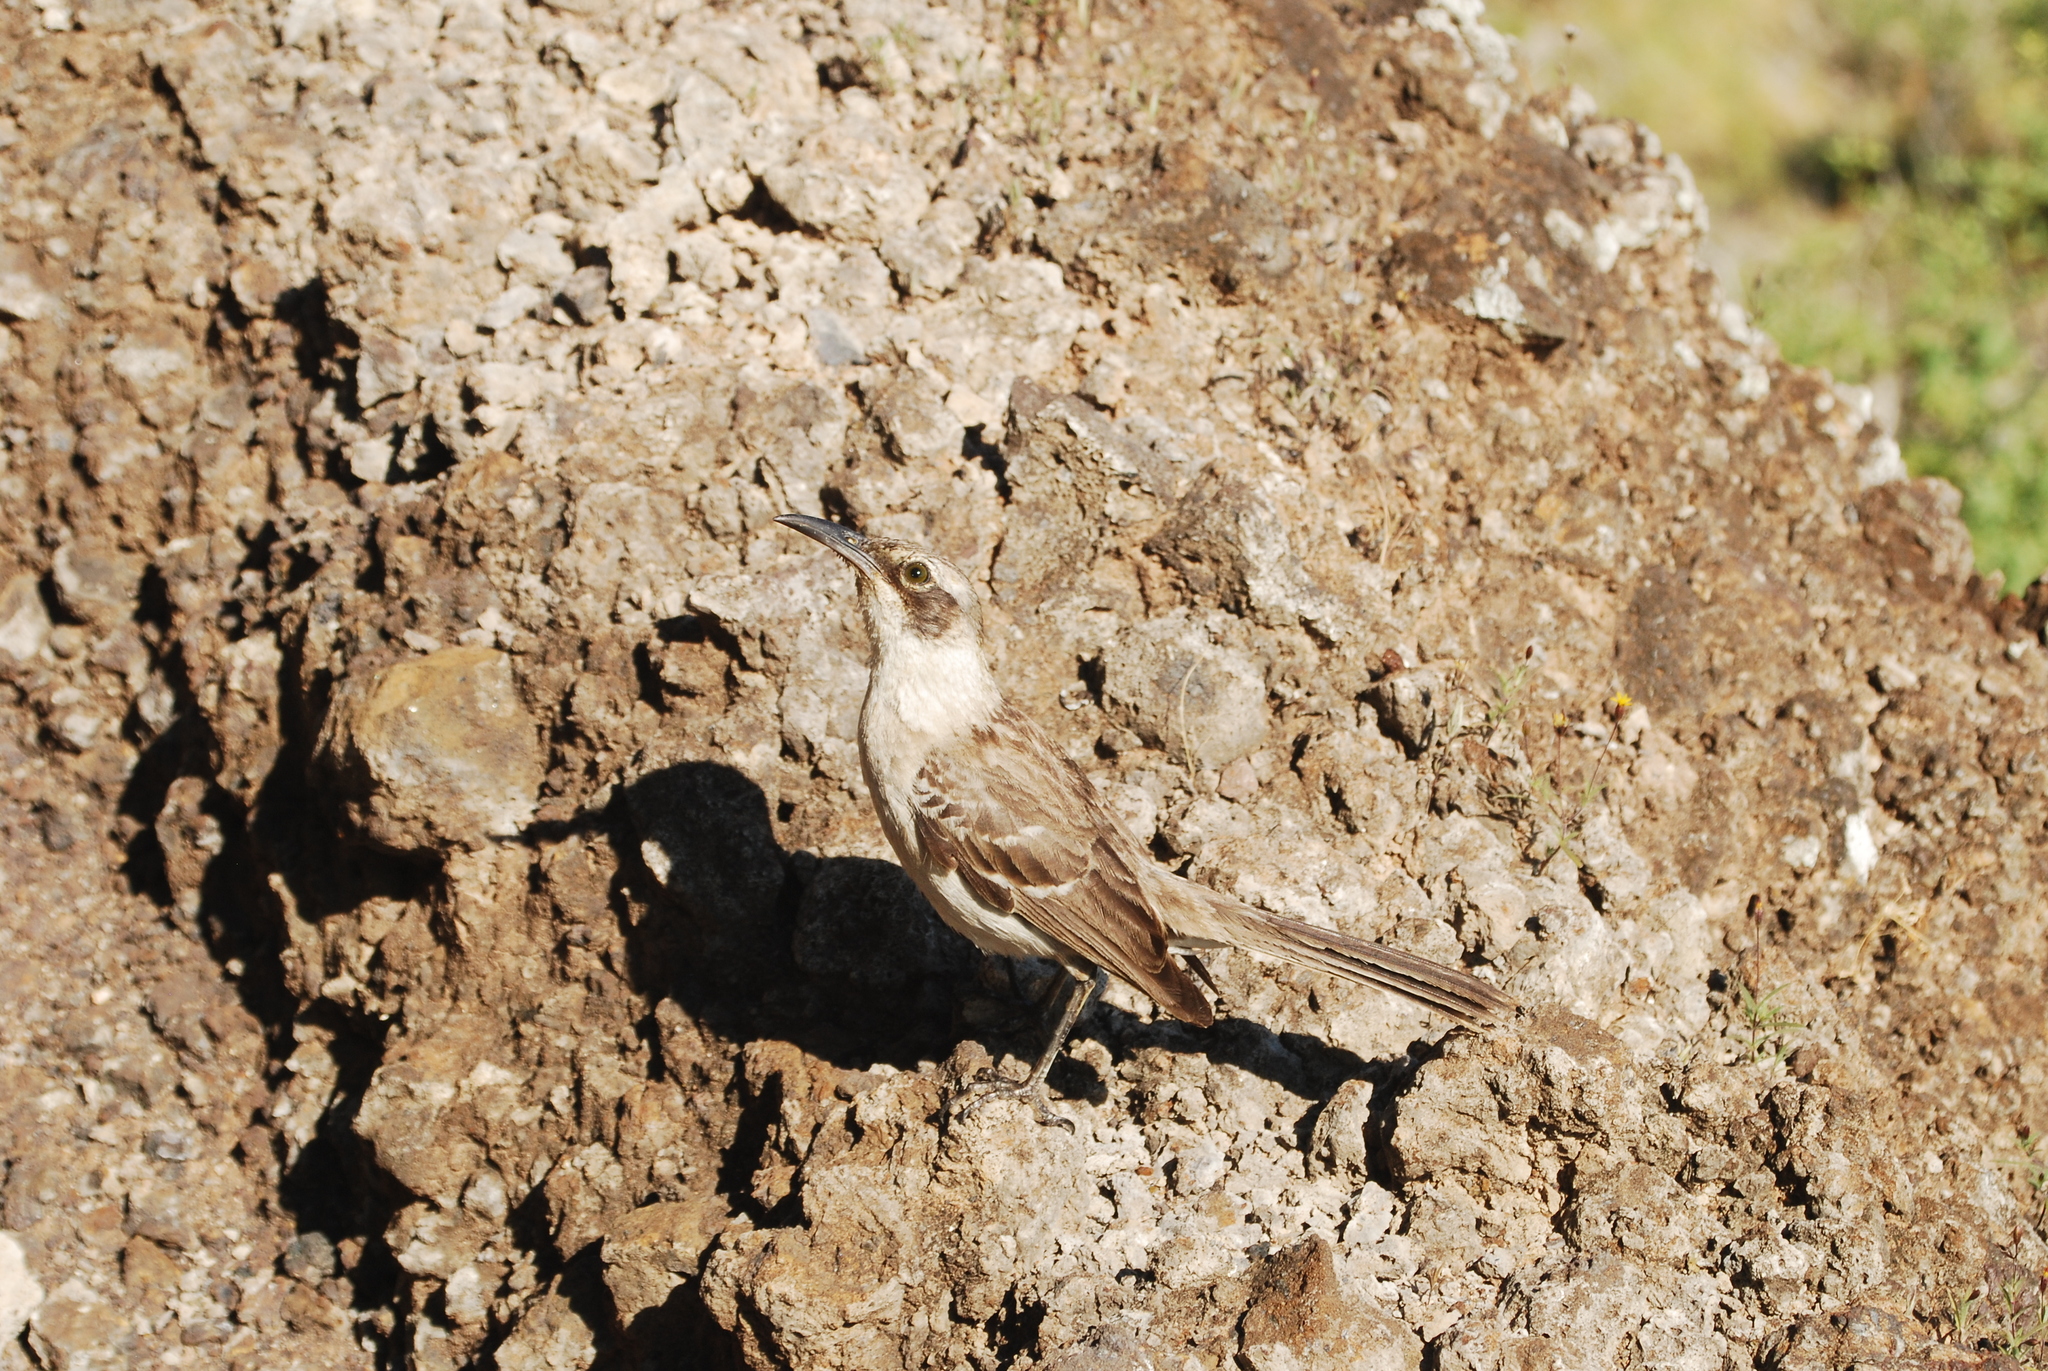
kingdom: Animalia
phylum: Chordata
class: Aves
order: Passeriformes
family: Mimidae
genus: Mimus
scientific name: Mimus parvulus
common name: Galapagos mockingbird
